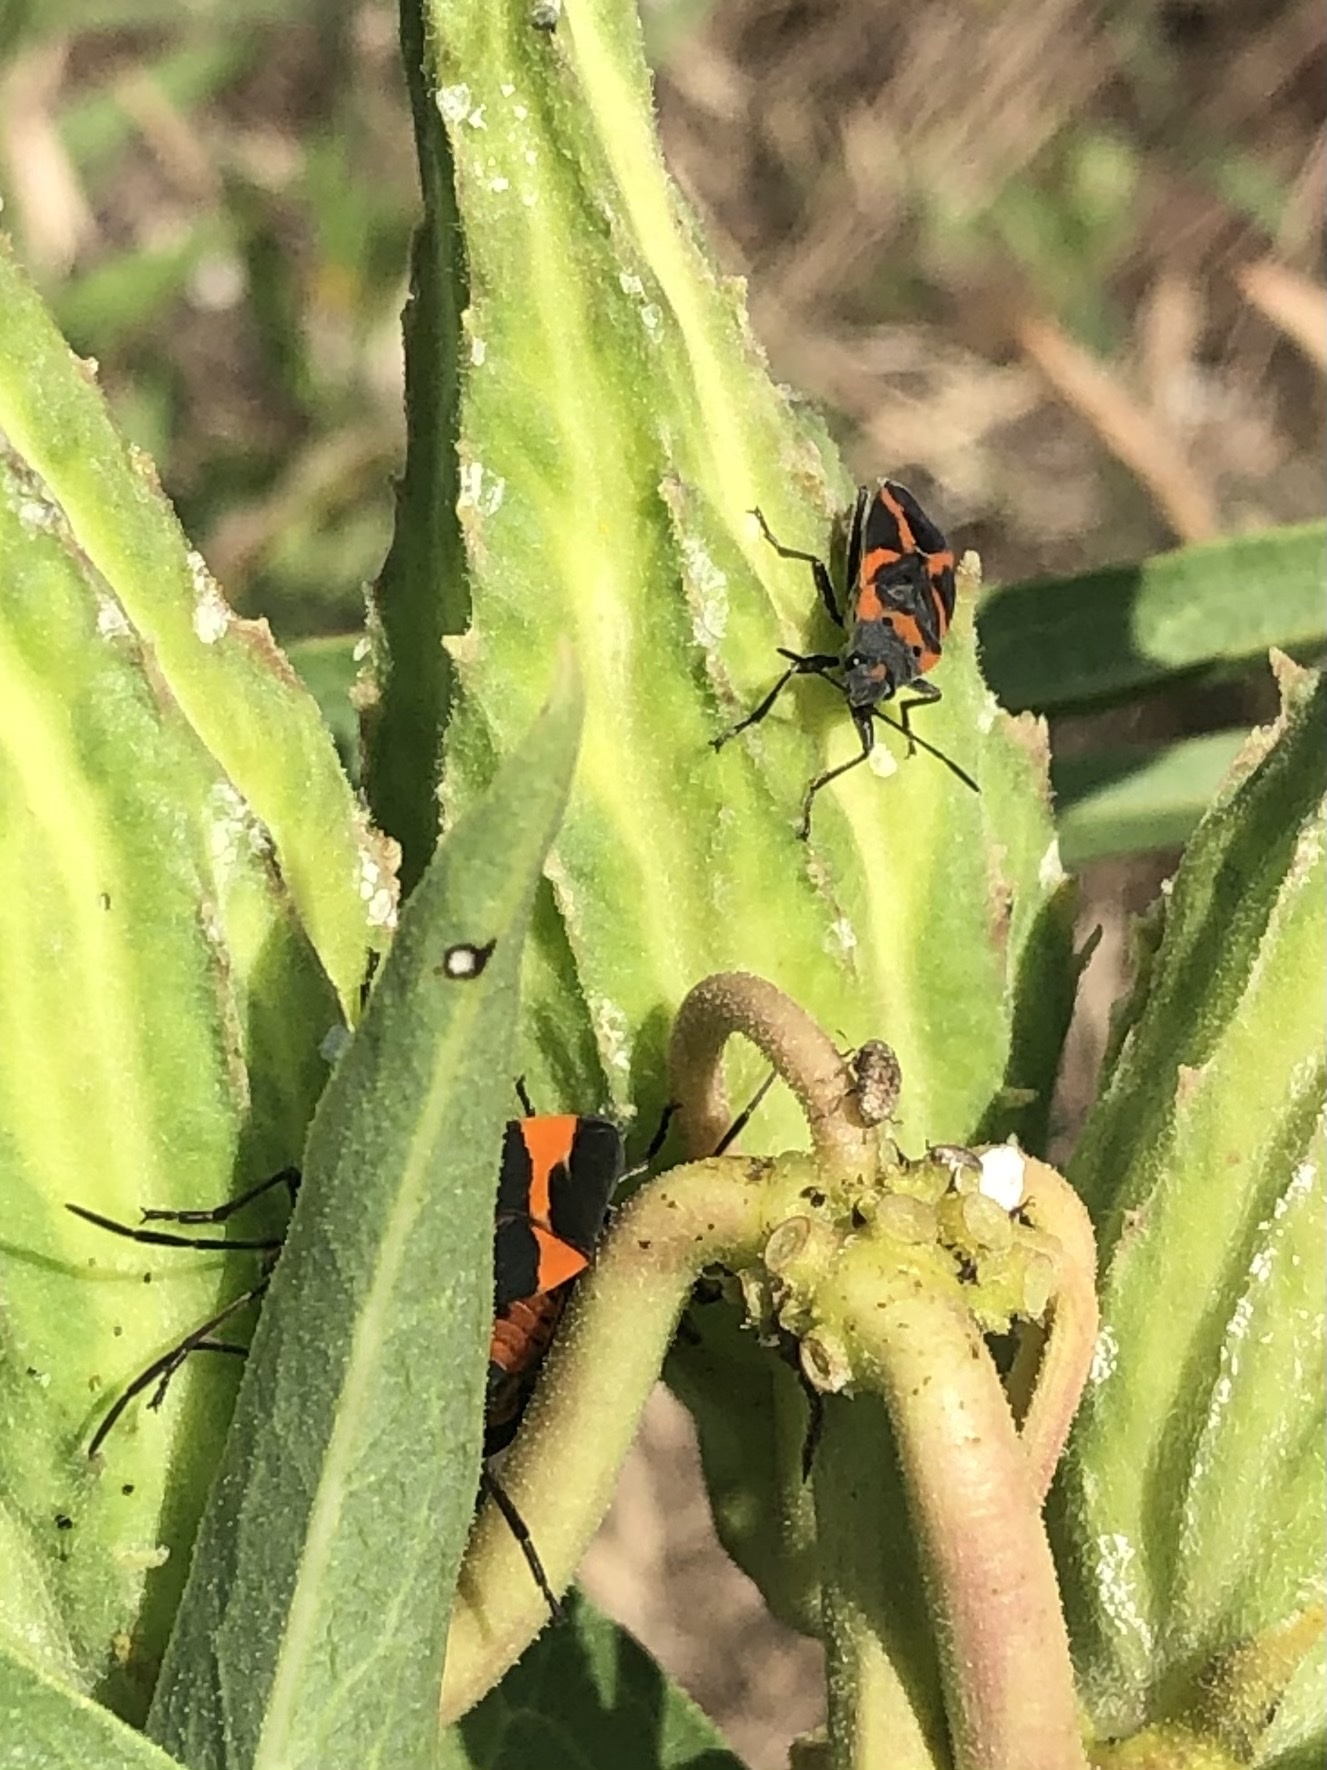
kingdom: Animalia
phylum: Arthropoda
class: Insecta
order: Hemiptera
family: Lygaeidae
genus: Oncopeltus
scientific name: Oncopeltus fasciatus
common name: Large milkweed bug
